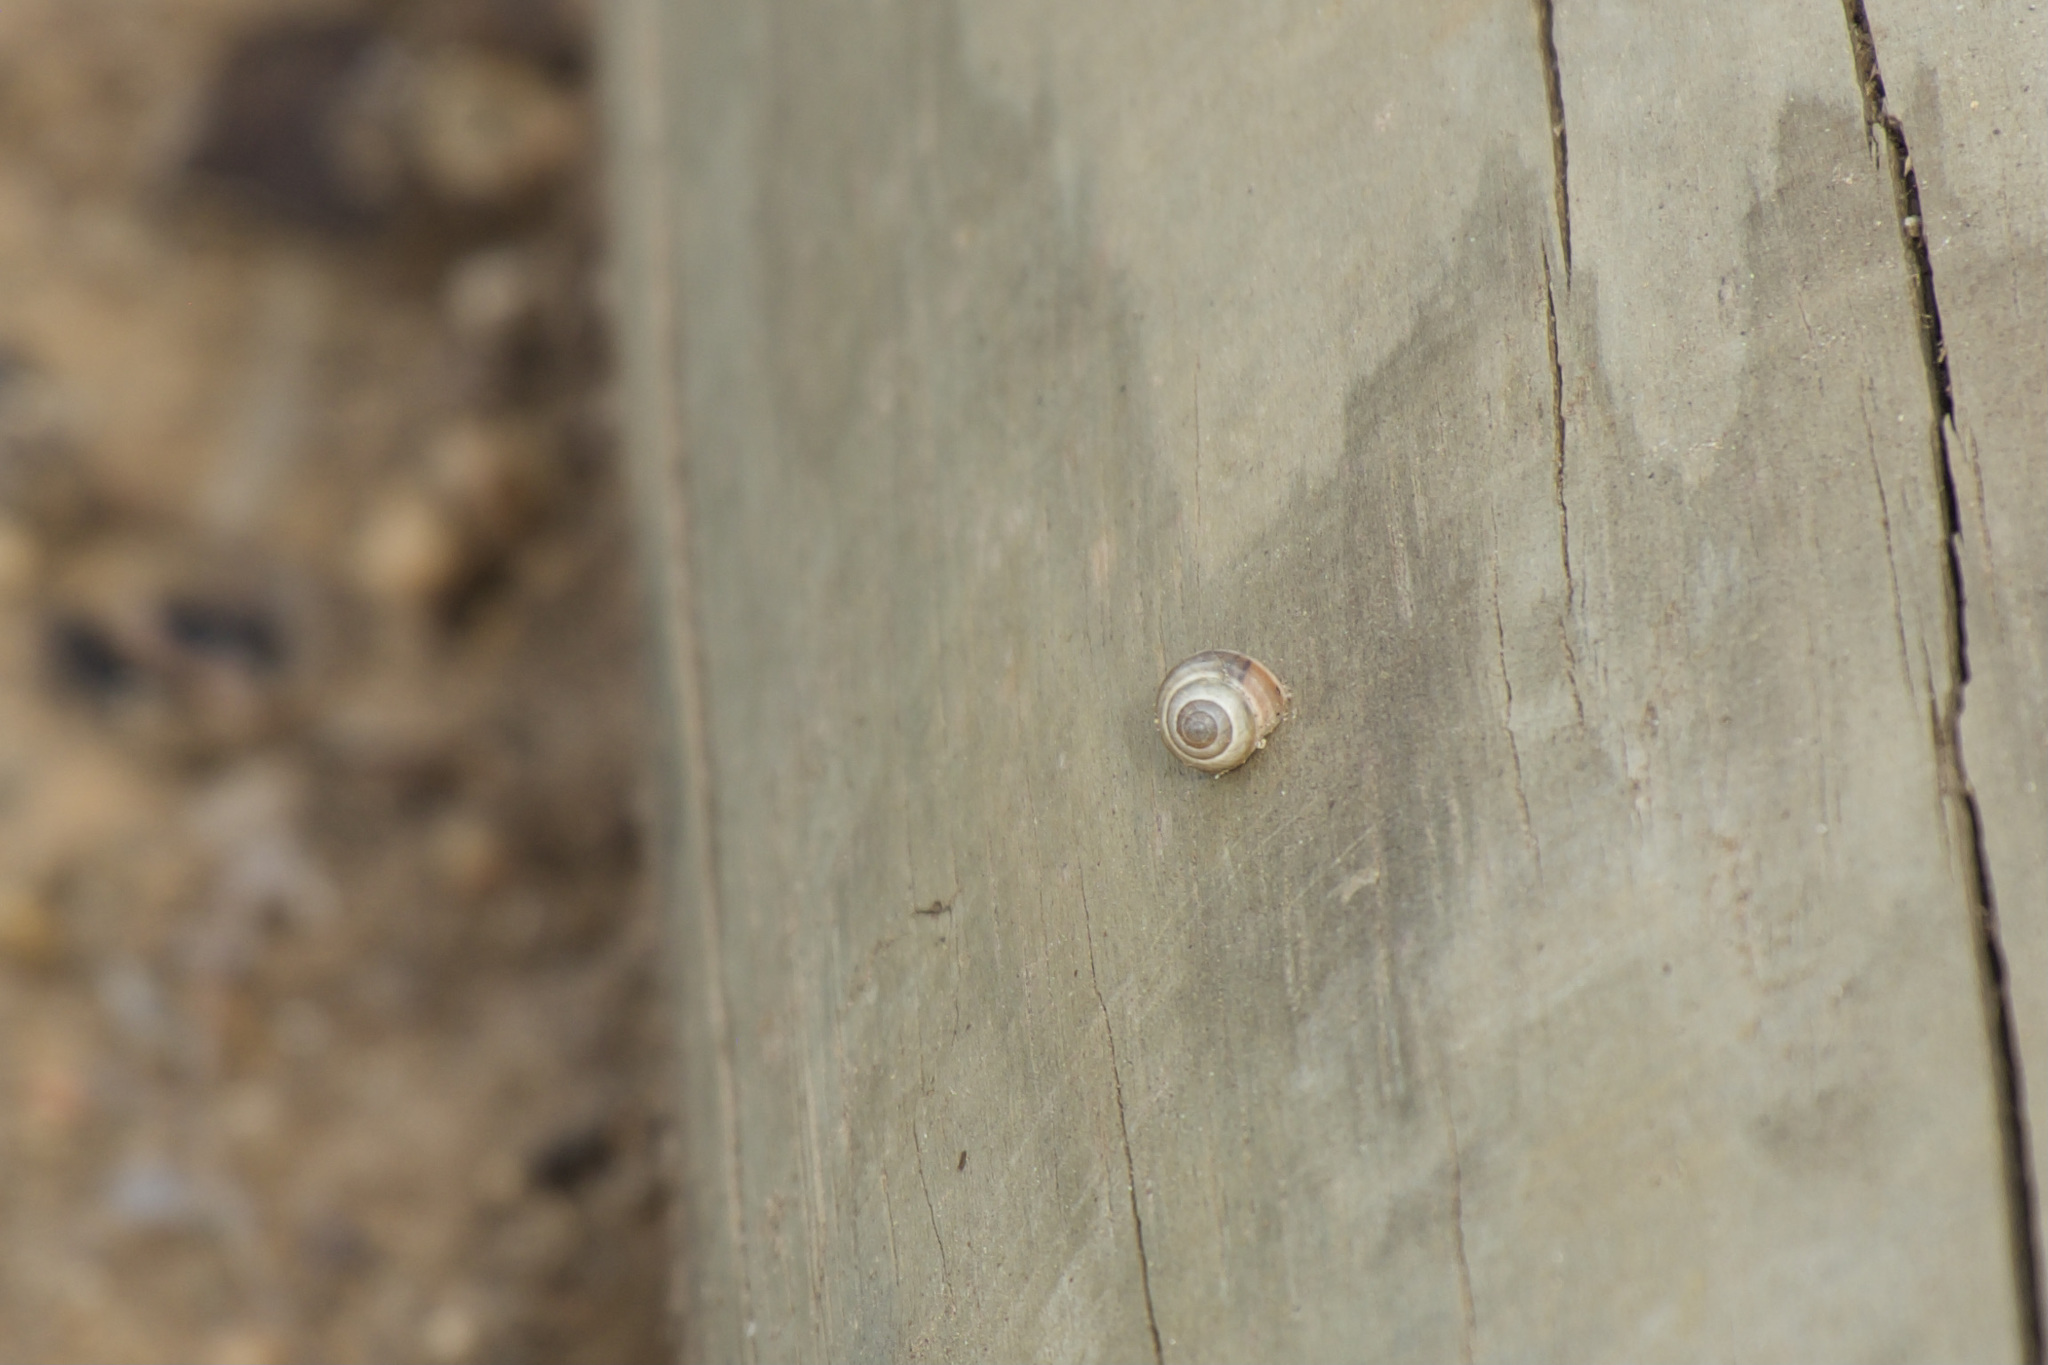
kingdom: Animalia
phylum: Mollusca
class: Gastropoda
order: Cycloneritida
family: Helicinidae
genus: Helicina
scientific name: Helicina orbiculata
